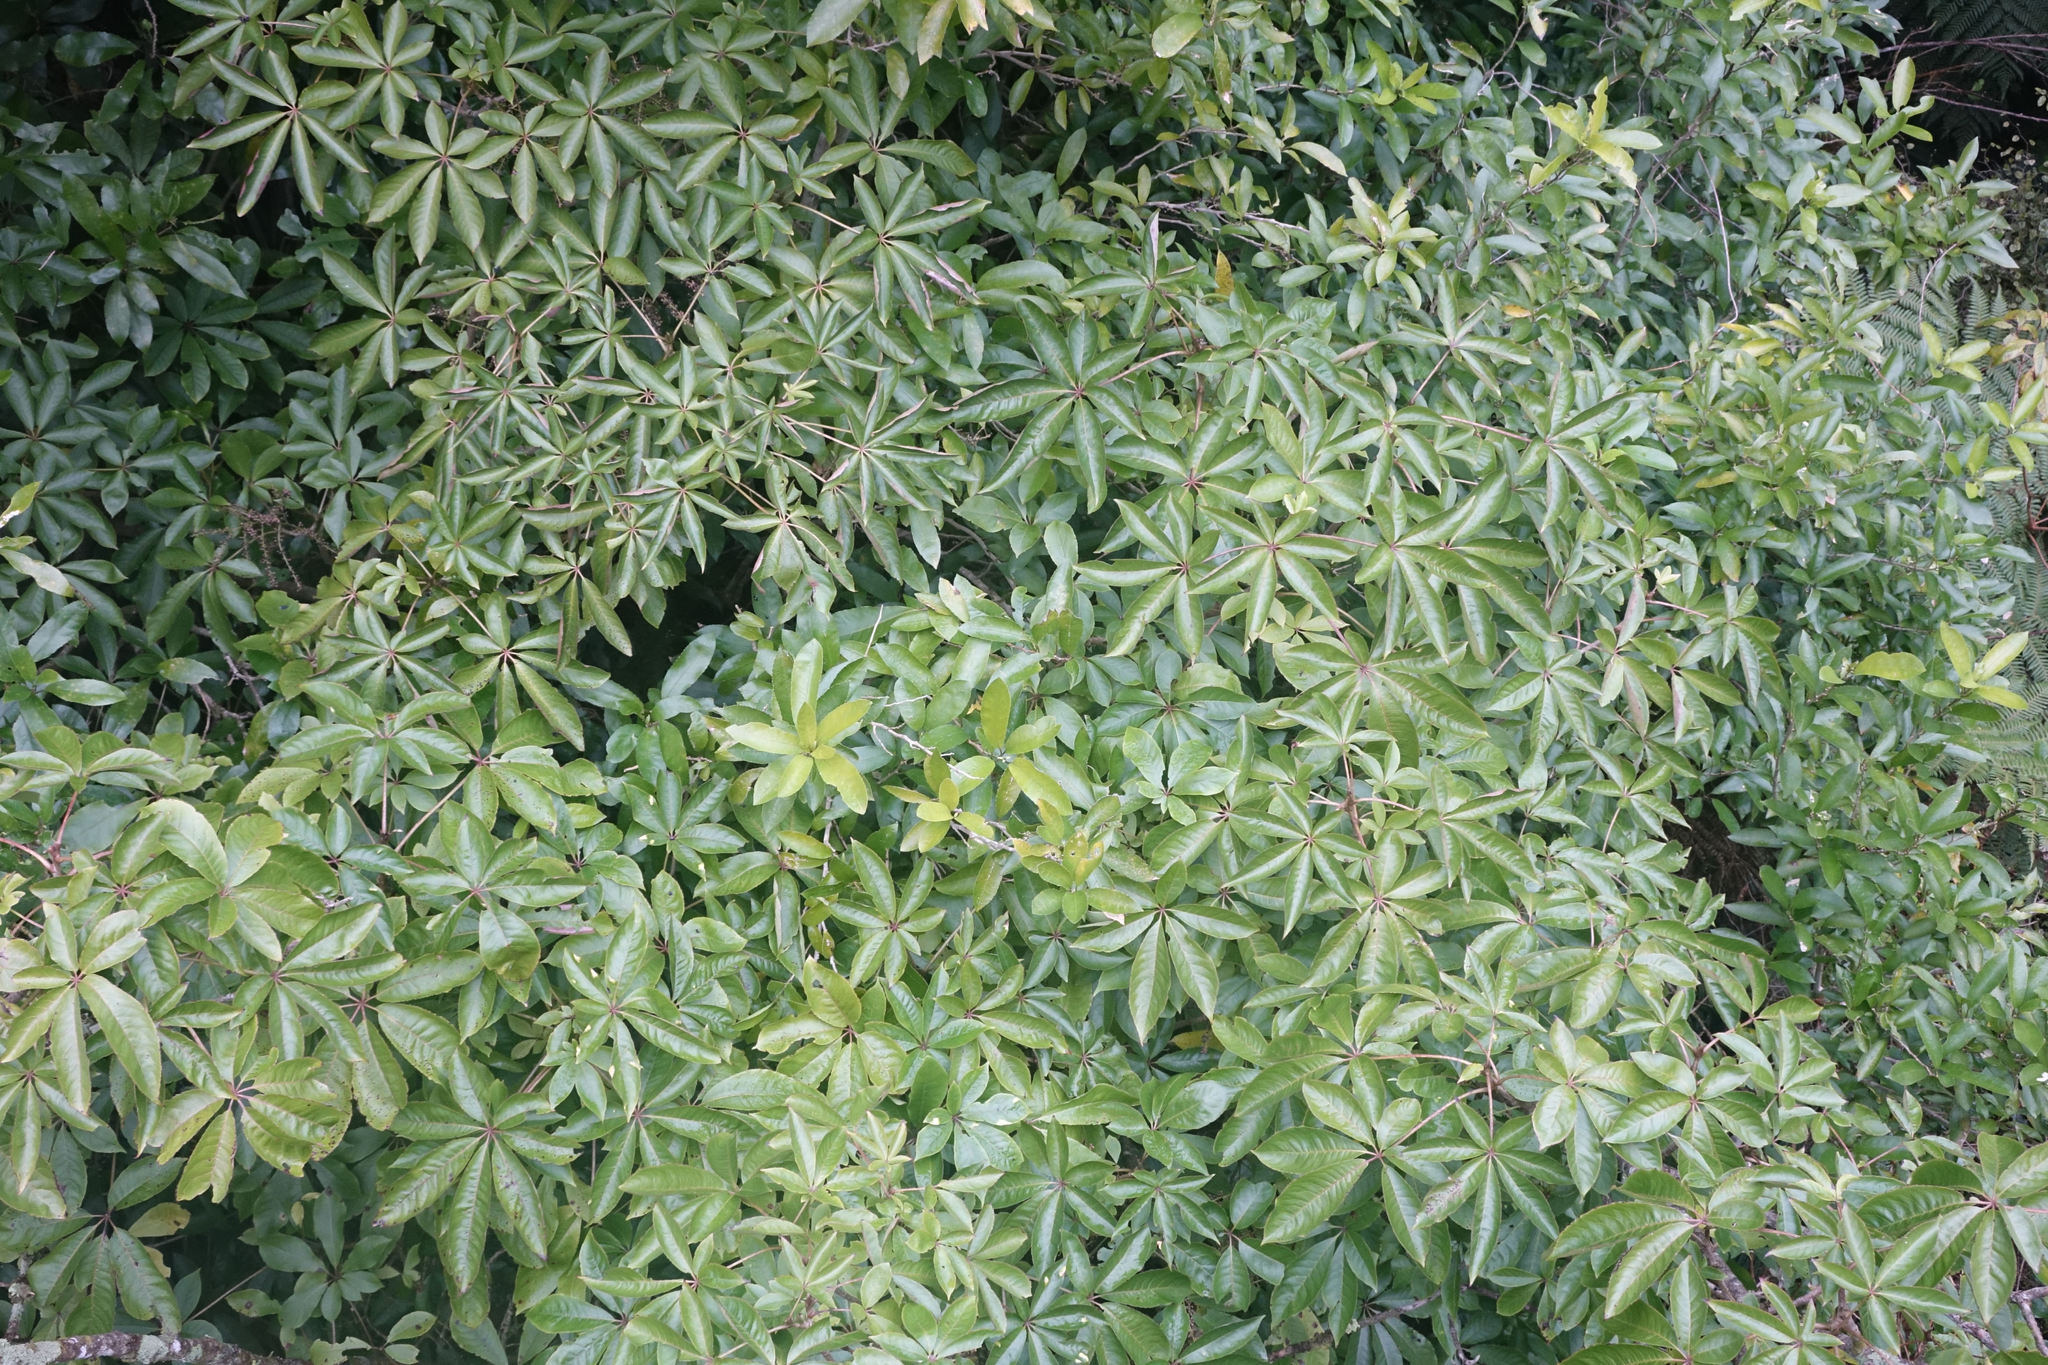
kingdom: Plantae
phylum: Tracheophyta
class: Magnoliopsida
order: Apiales
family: Araliaceae
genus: Schefflera
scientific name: Schefflera digitata
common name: Pate
